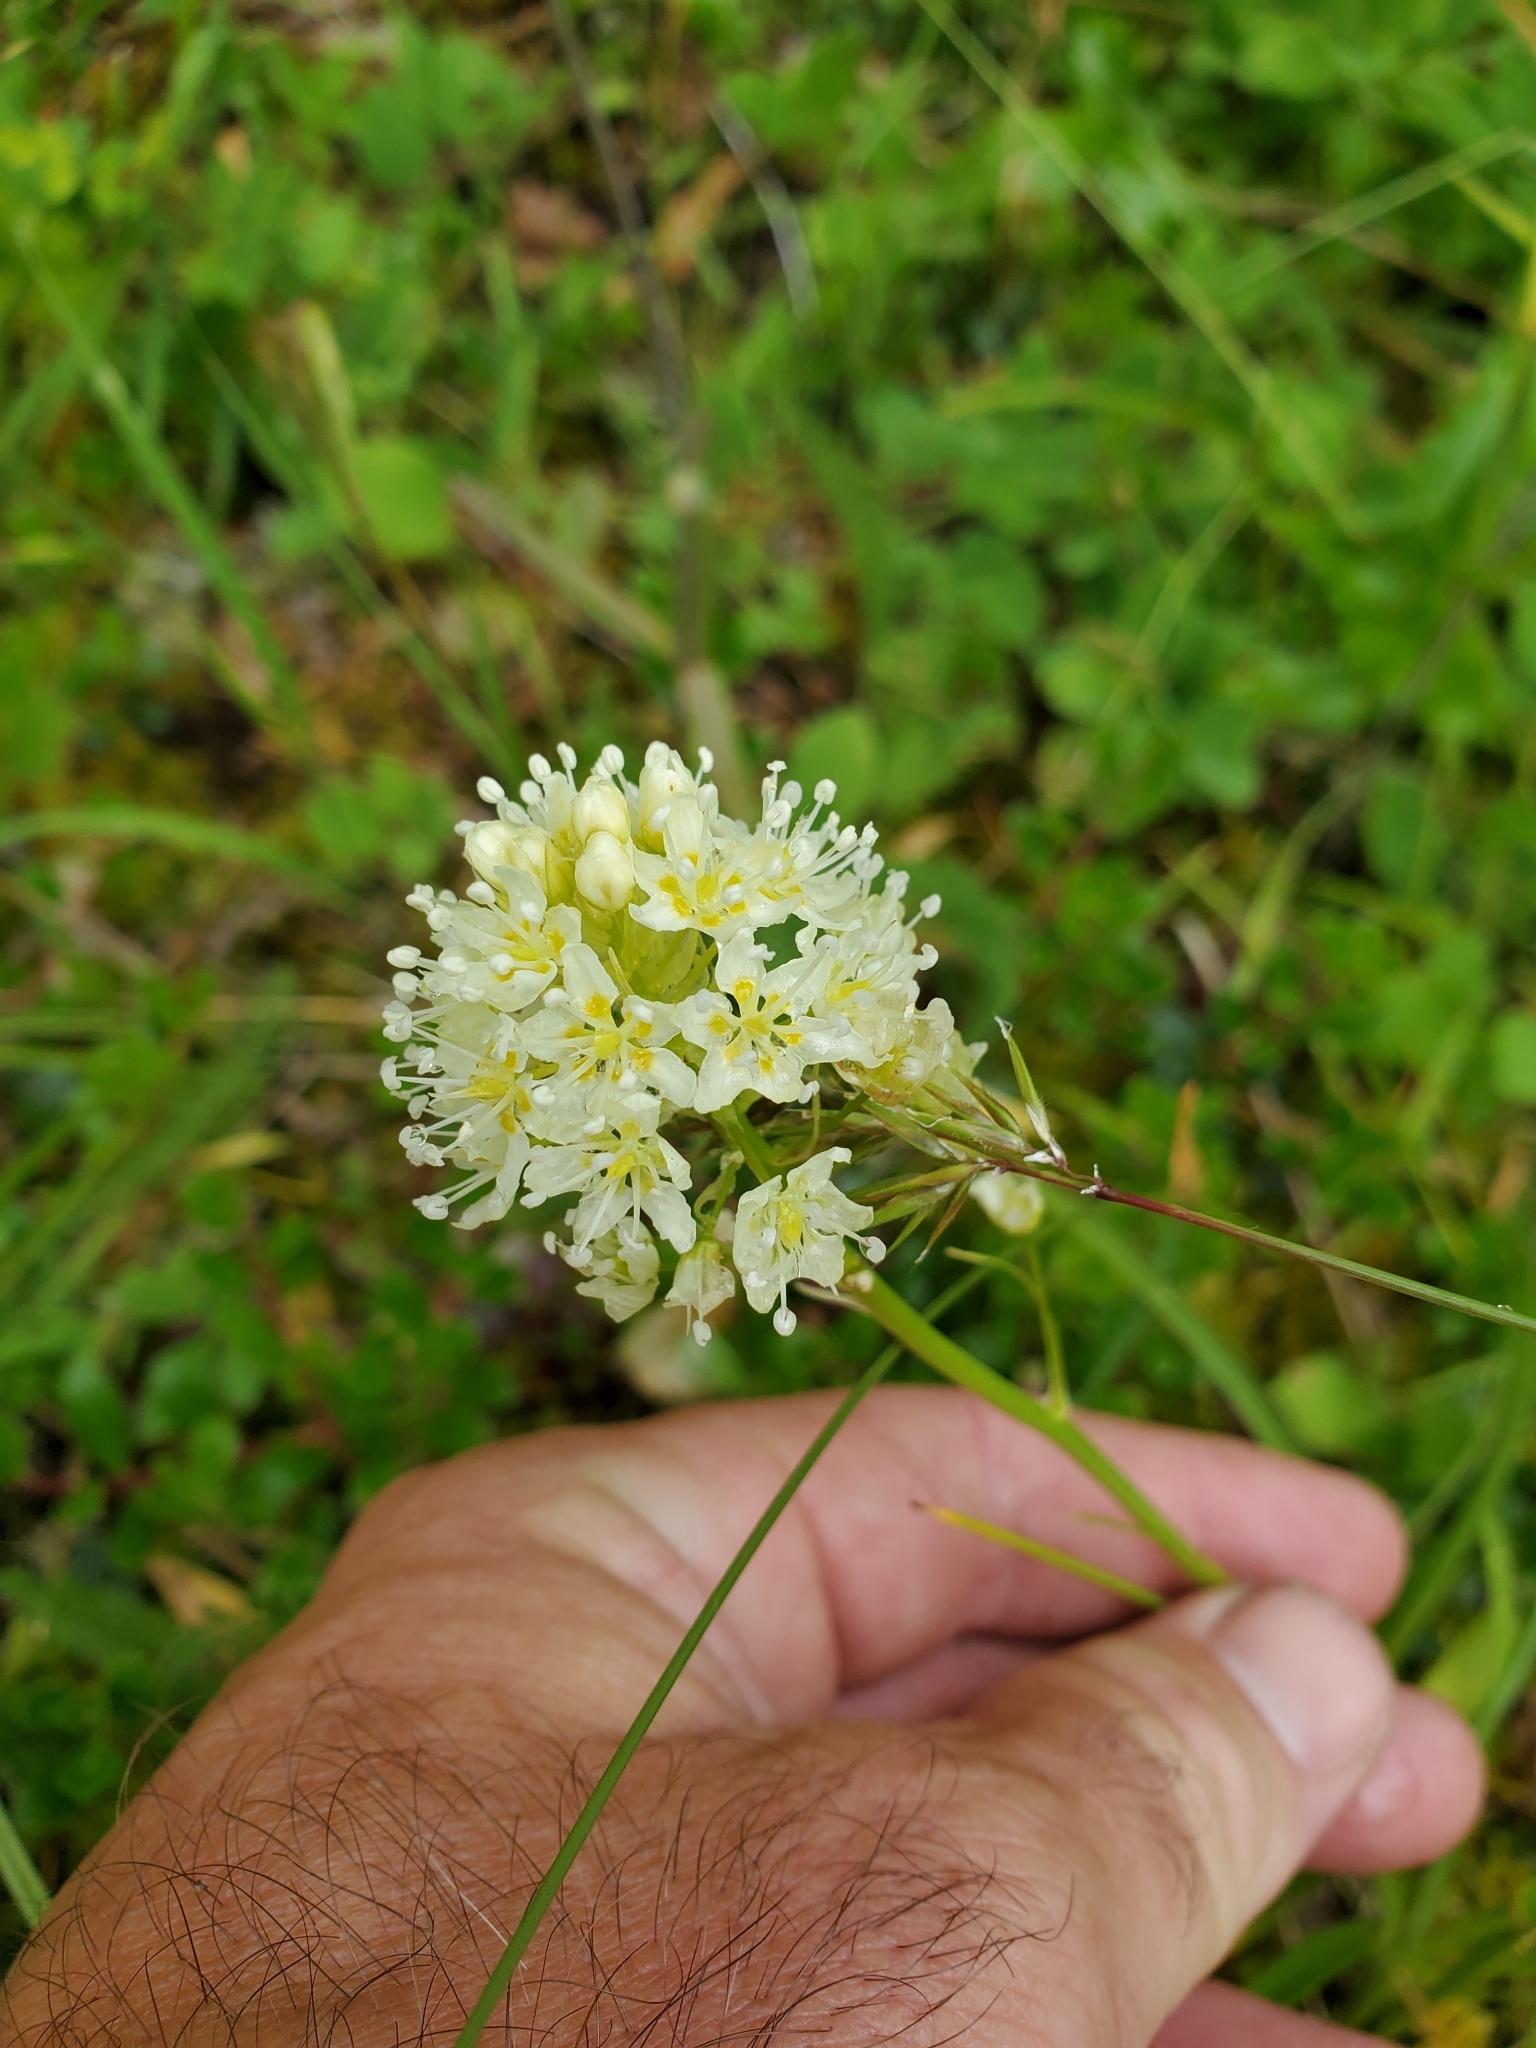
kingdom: Plantae
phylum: Tracheophyta
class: Liliopsida
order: Liliales
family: Melanthiaceae
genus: Toxicoscordion
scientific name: Toxicoscordion venenosum
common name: Meadow death camas
